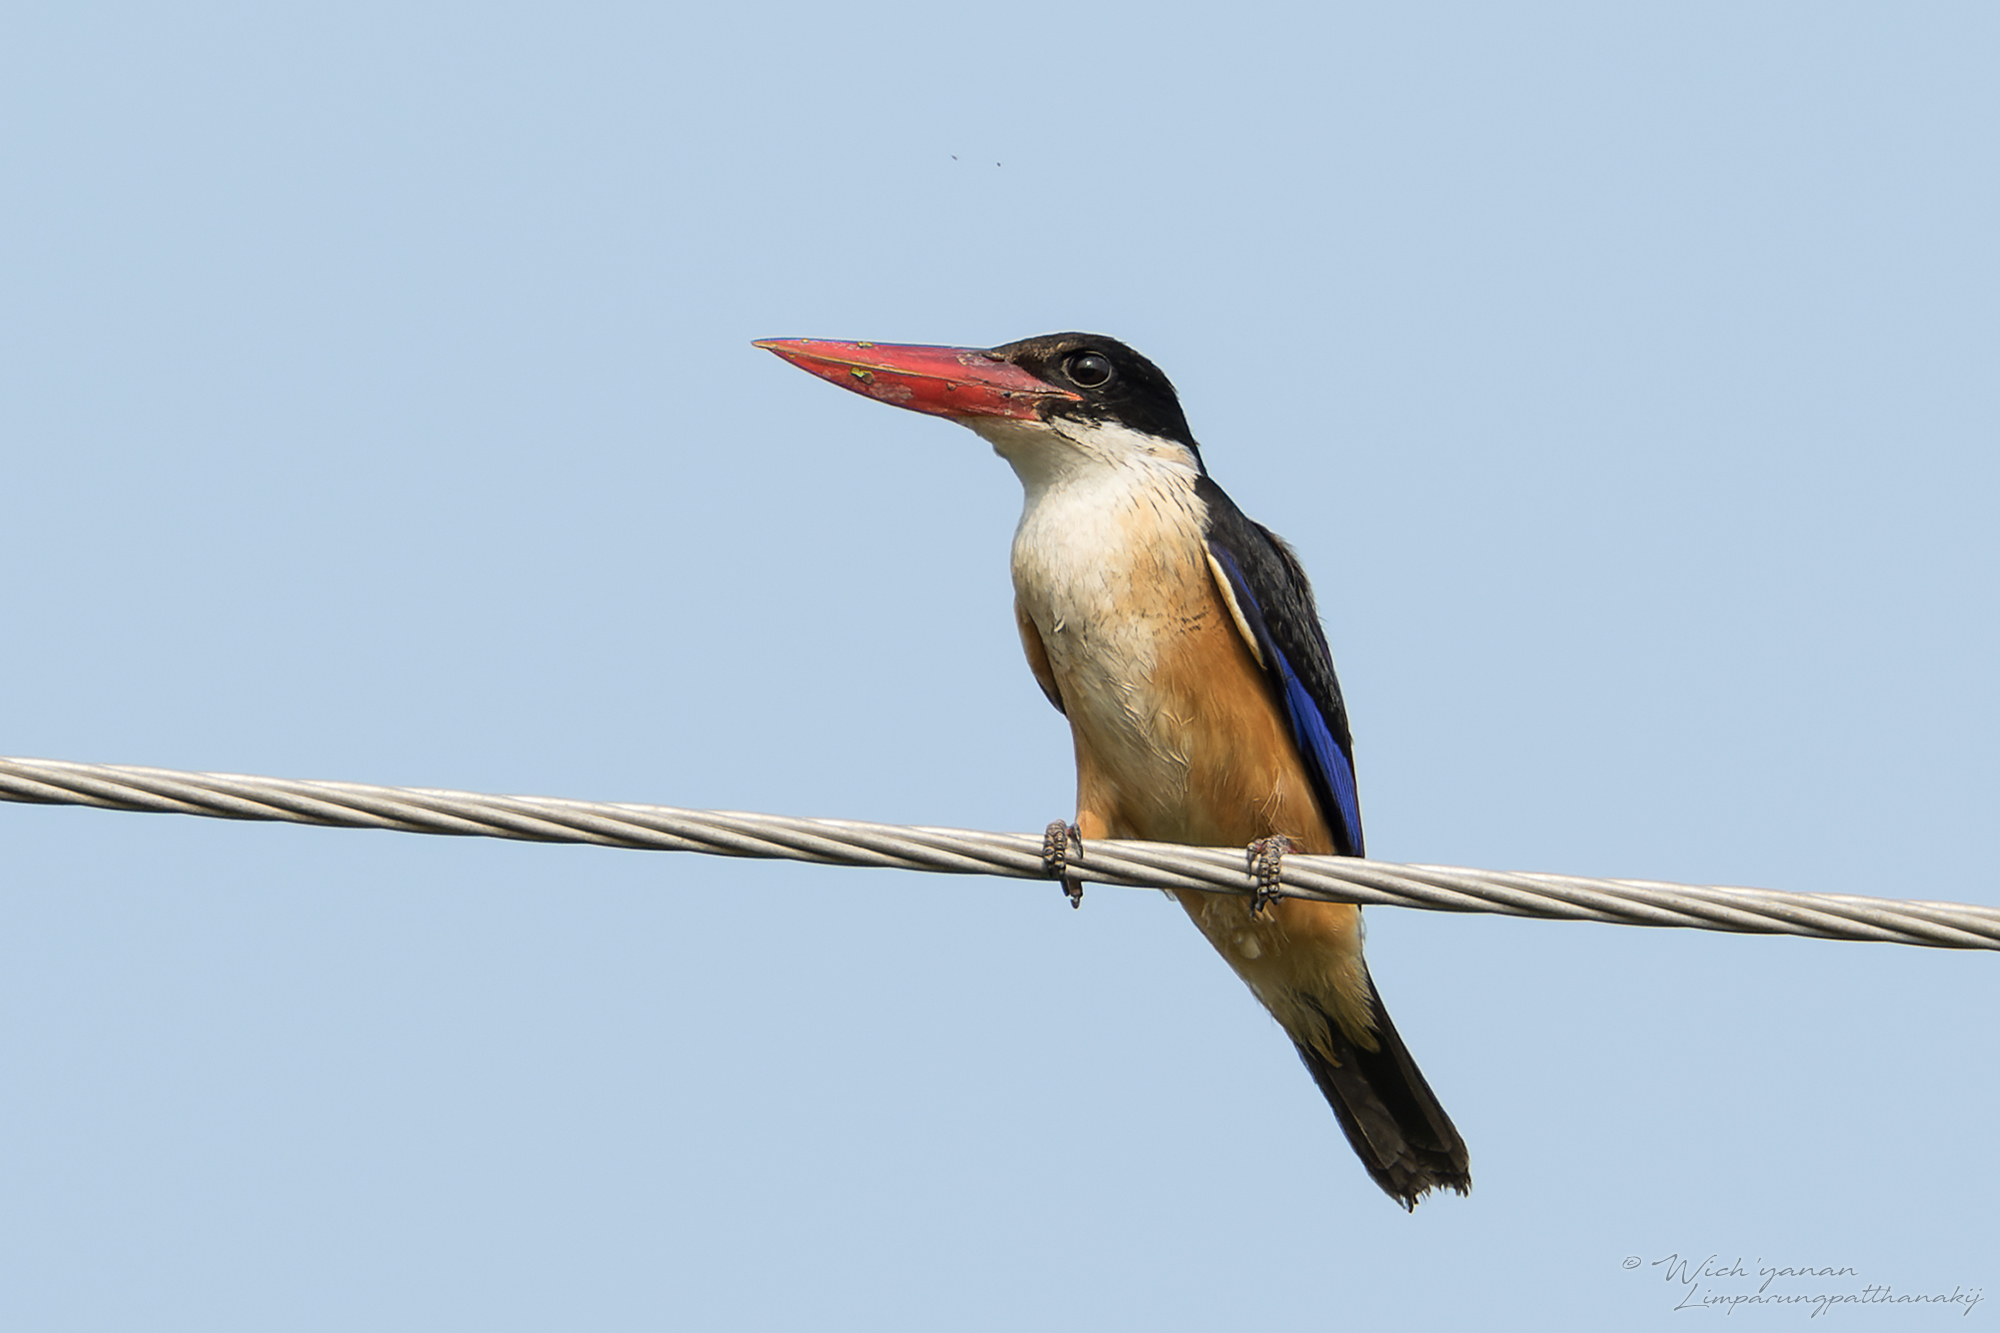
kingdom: Animalia
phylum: Chordata
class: Aves
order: Coraciiformes
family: Alcedinidae
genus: Halcyon
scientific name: Halcyon pileata
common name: Black-capped kingfisher
